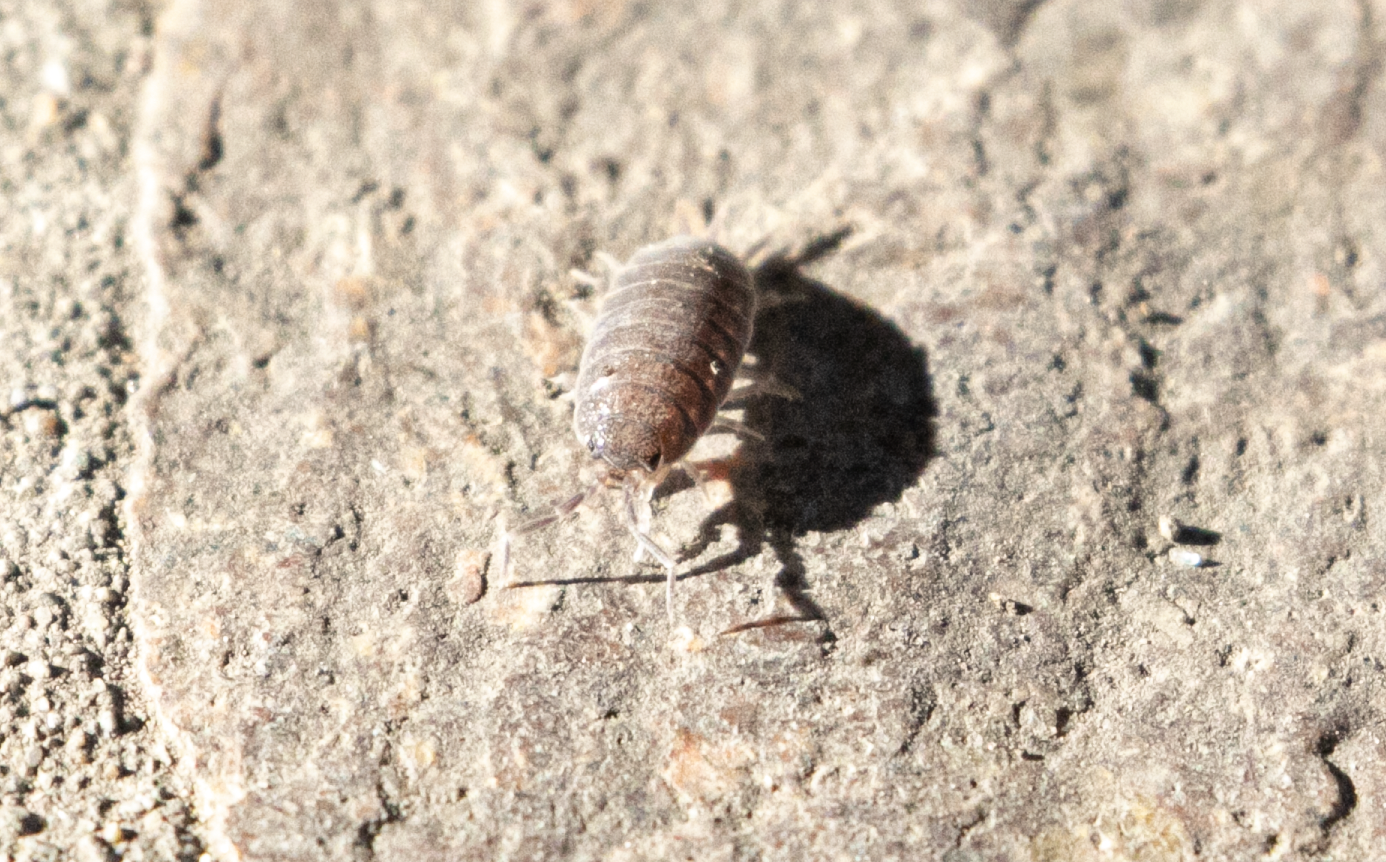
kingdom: Animalia
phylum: Arthropoda
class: Malacostraca
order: Isopoda
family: Porcellionidae
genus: Porcellionides
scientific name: Porcellionides pruinosus
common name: Plum woodlouse
